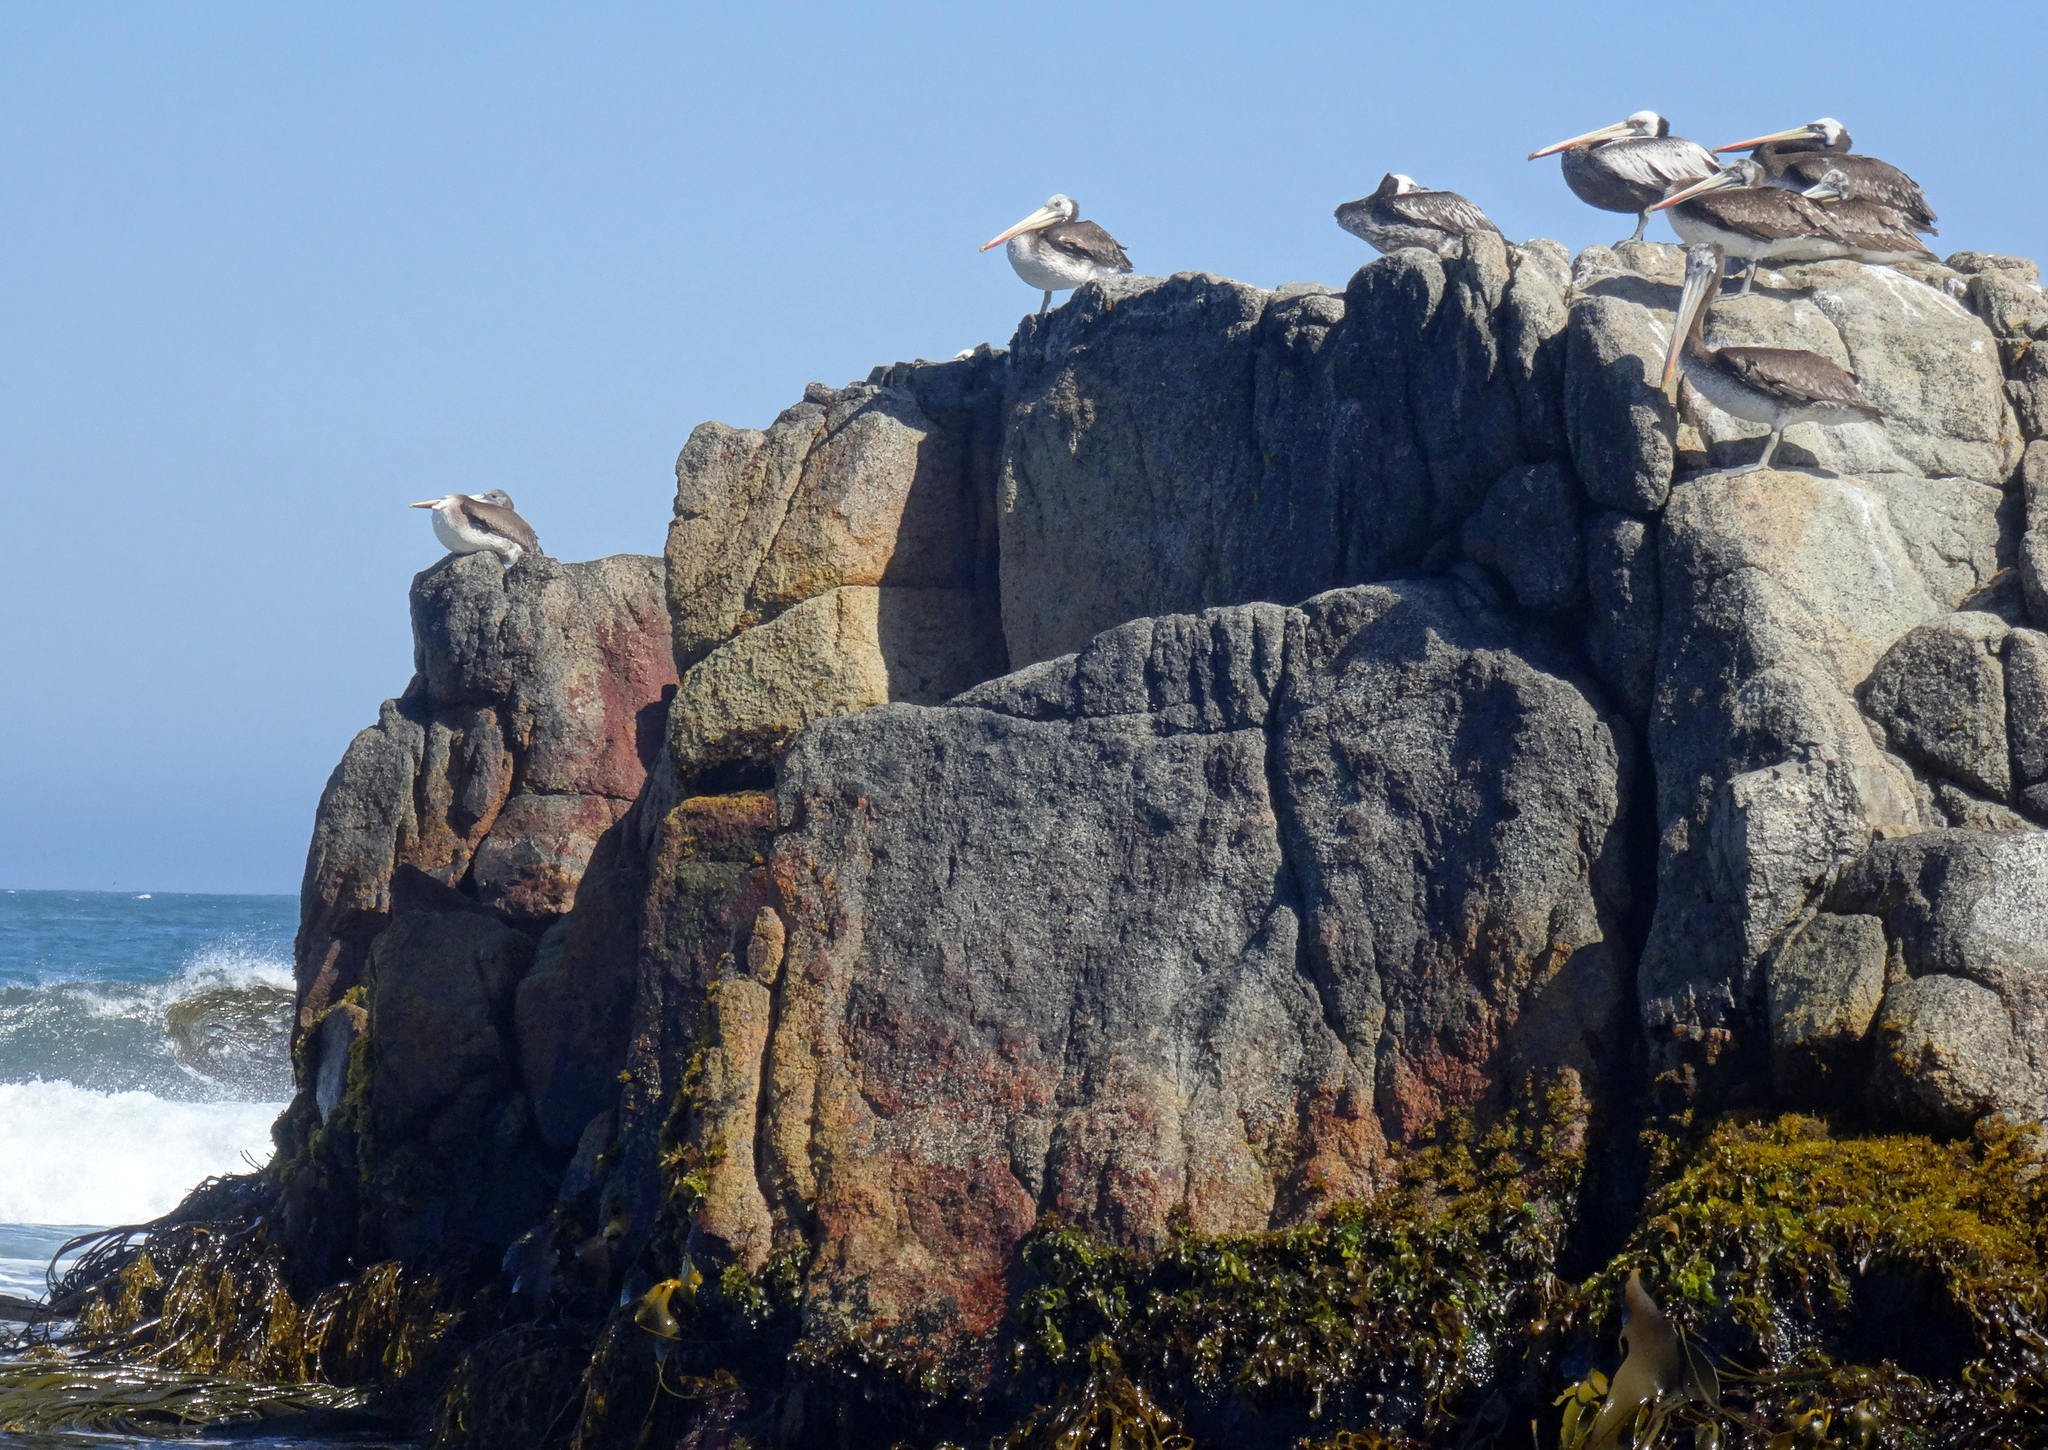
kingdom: Animalia
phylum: Chordata
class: Aves
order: Pelecaniformes
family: Pelecanidae
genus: Pelecanus
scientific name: Pelecanus thagus
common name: Peruvian pelican
